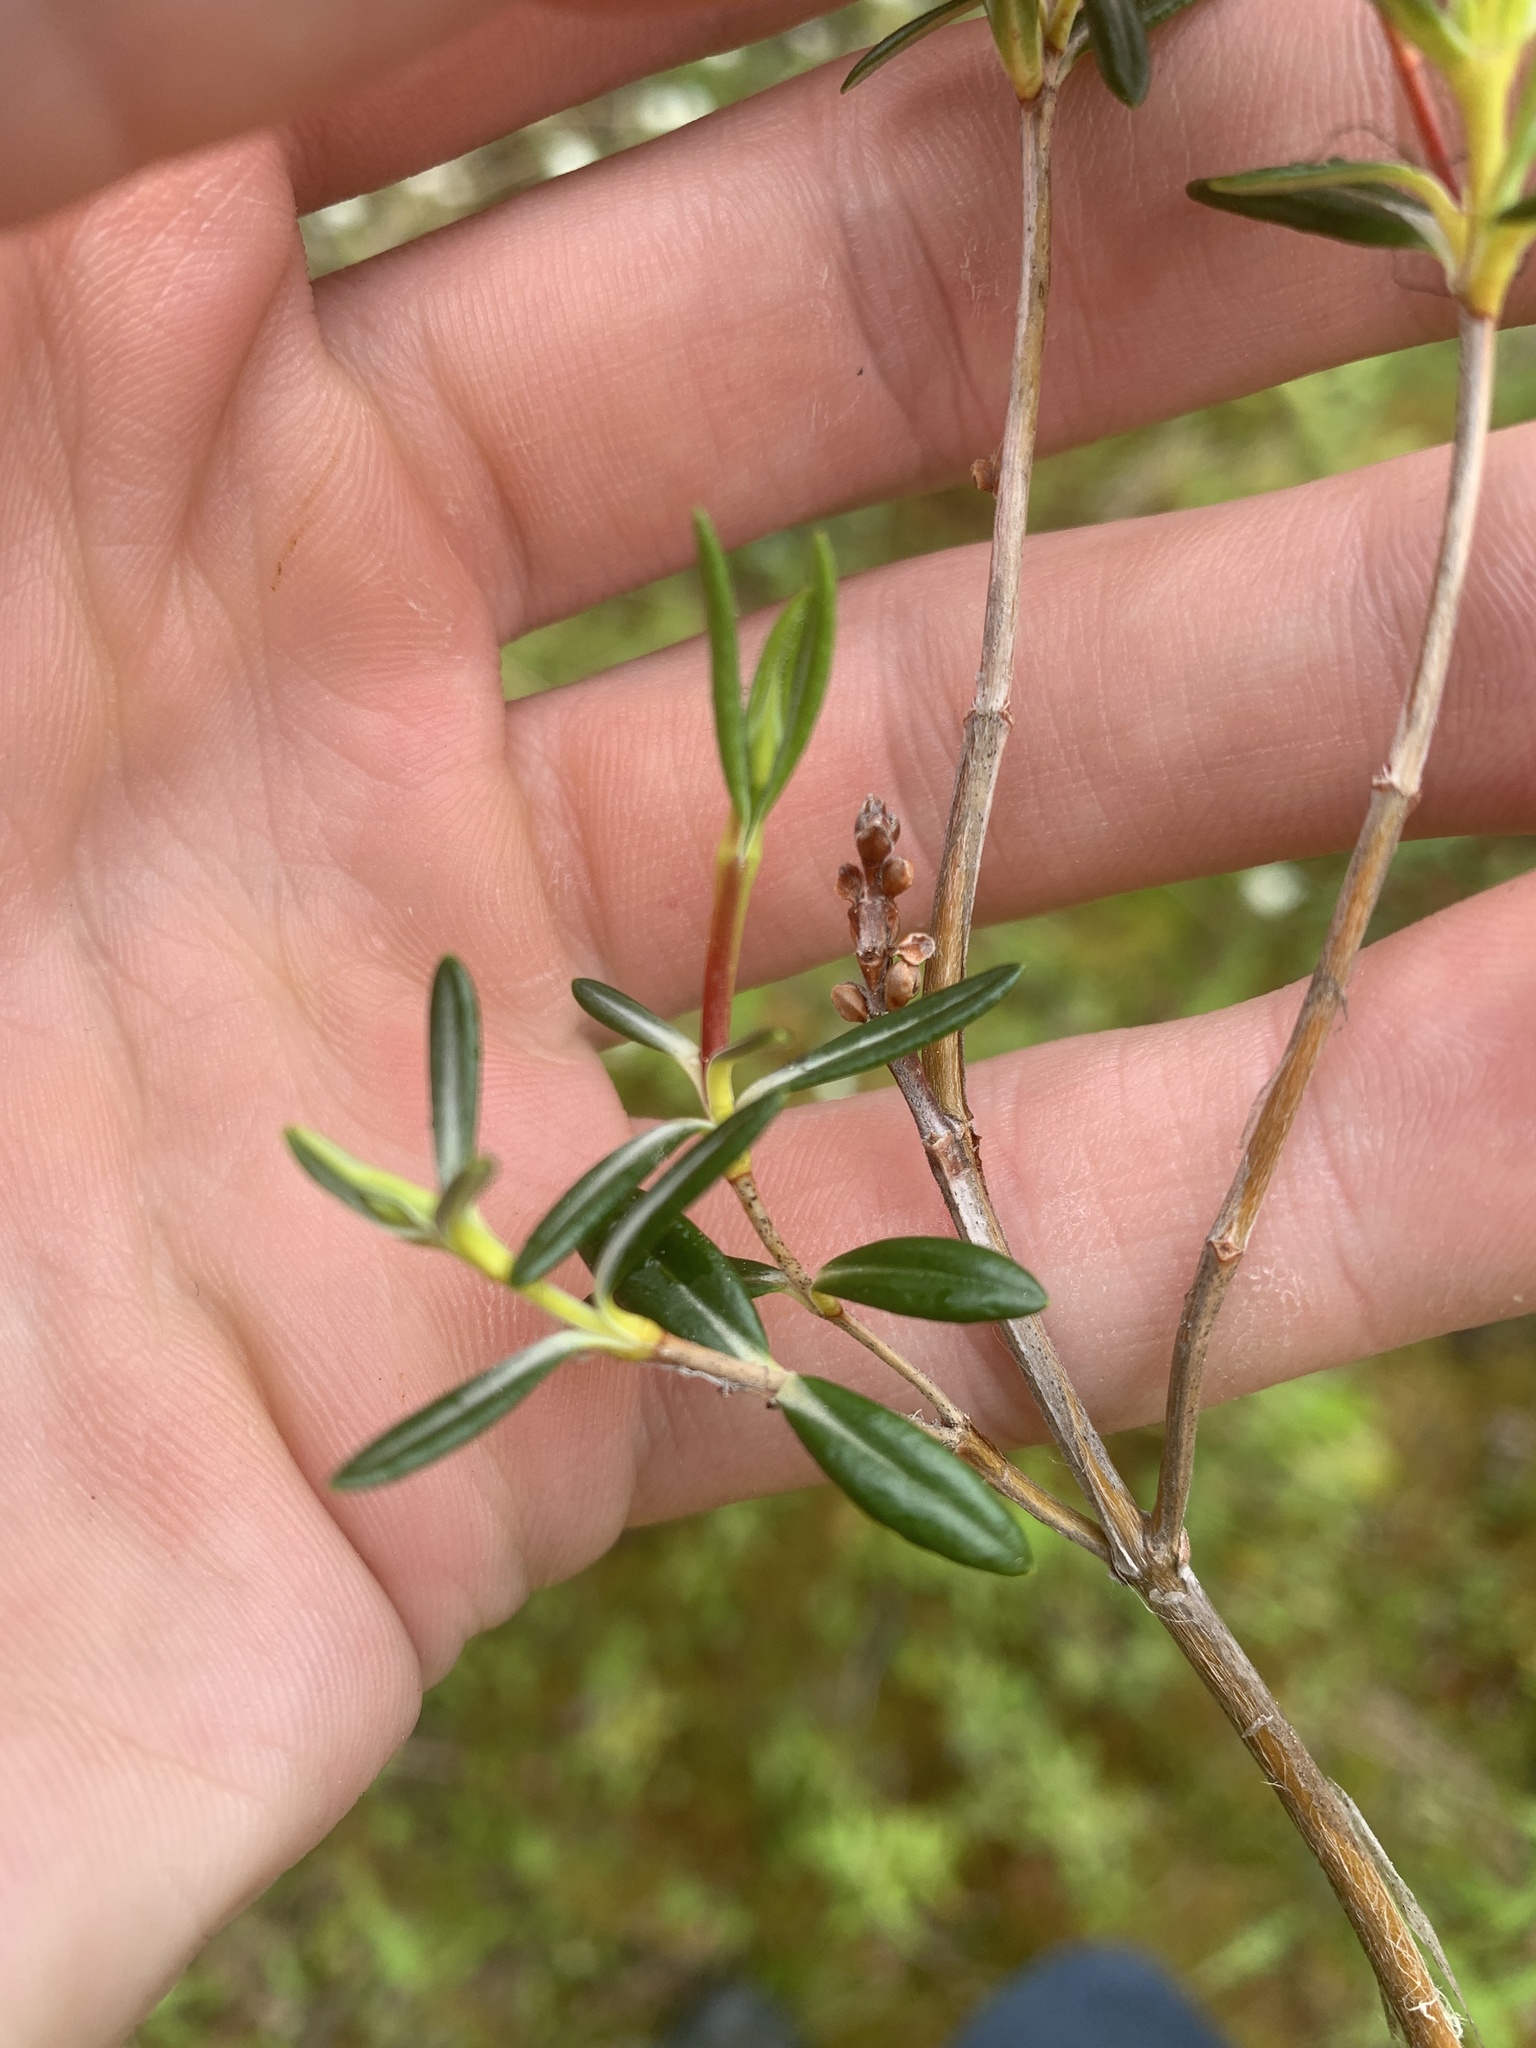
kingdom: Plantae
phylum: Tracheophyta
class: Magnoliopsida
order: Ericales
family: Ericaceae
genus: Kalmia
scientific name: Kalmia polifolia
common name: Bog-laurel
